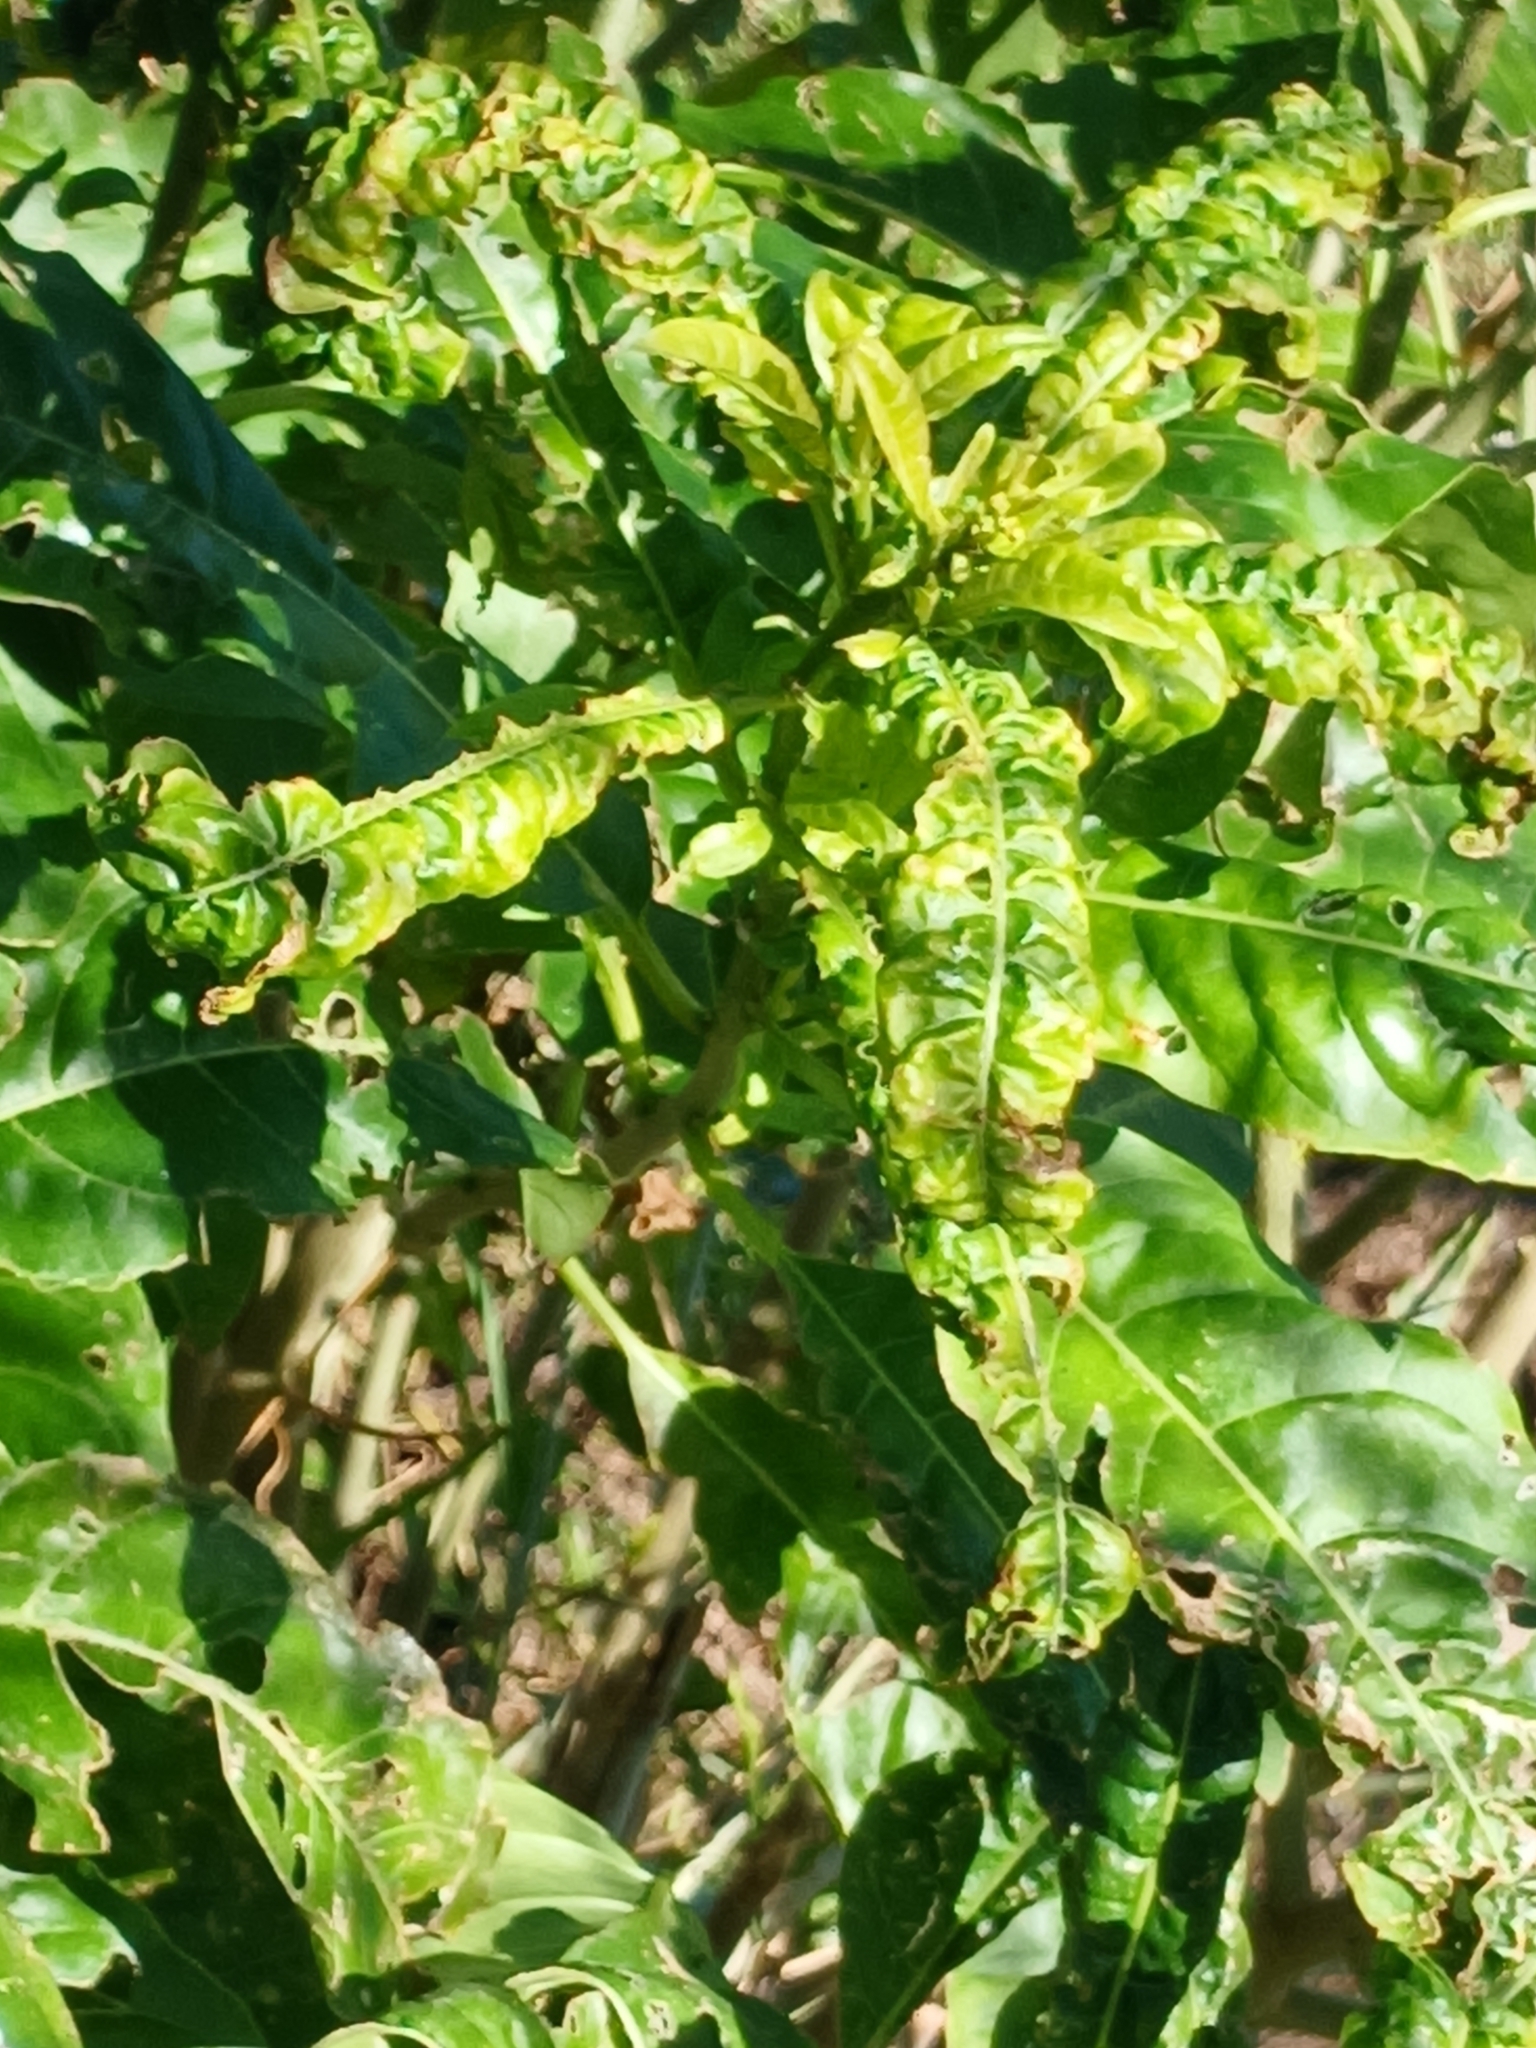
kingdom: Plantae
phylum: Tracheophyta
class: Magnoliopsida
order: Solanales
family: Solanaceae
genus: Cestrum
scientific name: Cestrum laevigatum
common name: Inkberry
